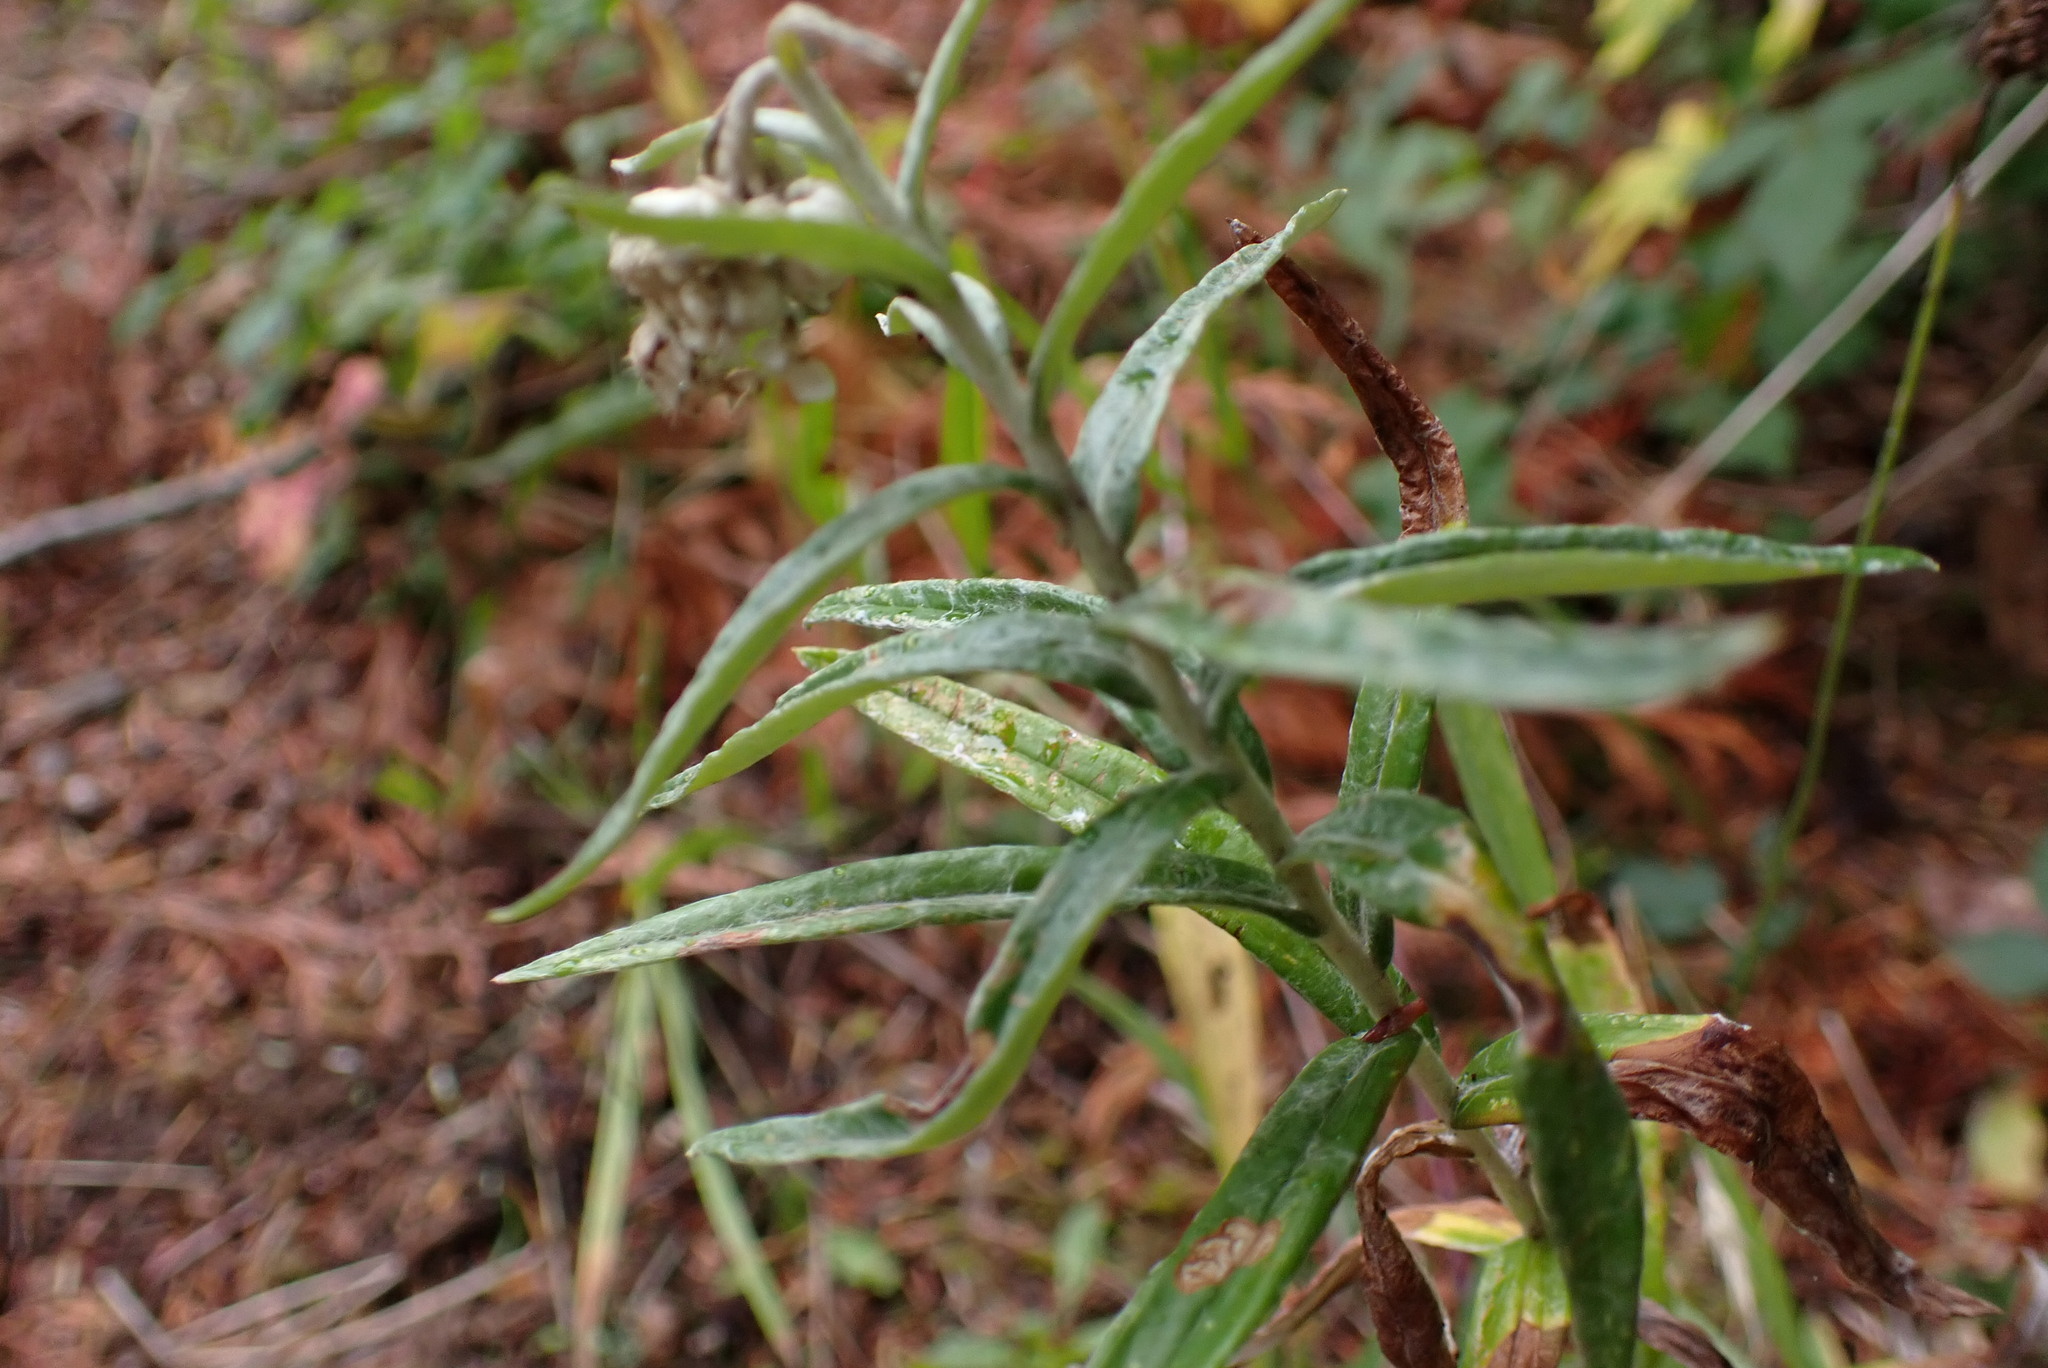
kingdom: Plantae
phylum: Tracheophyta
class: Magnoliopsida
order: Asterales
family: Asteraceae
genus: Anaphalis
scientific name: Anaphalis margaritacea
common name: Pearly everlasting
